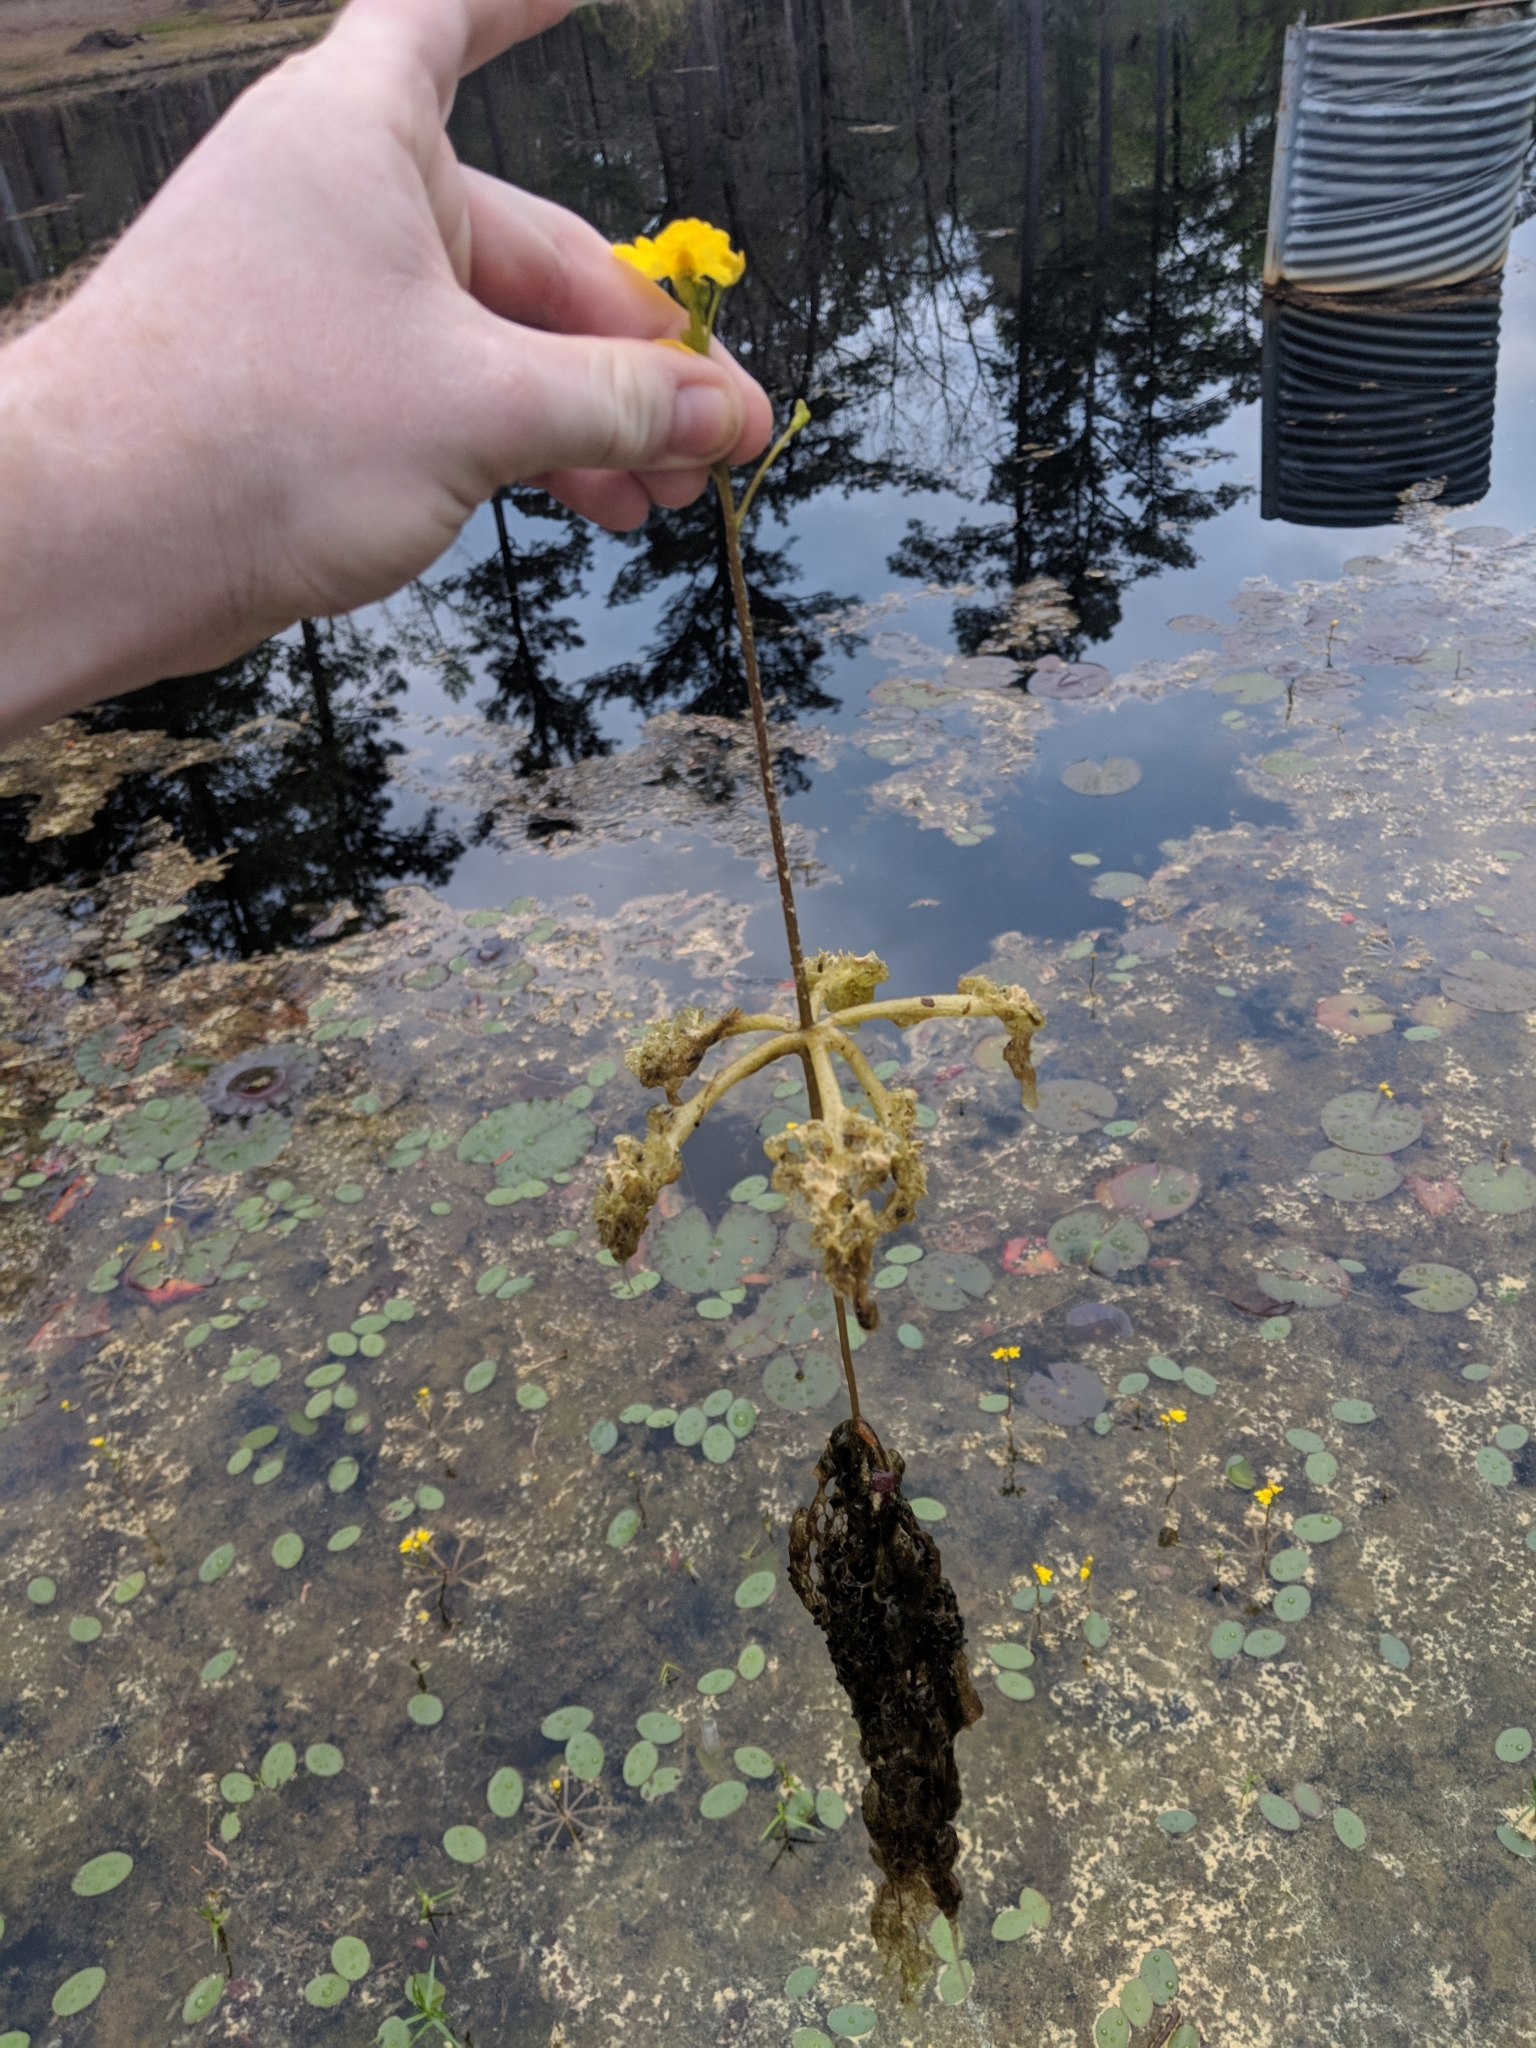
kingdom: Plantae
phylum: Tracheophyta
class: Magnoliopsida
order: Lamiales
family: Lentibulariaceae
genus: Utricularia
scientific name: Utricularia inflata
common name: Floating bladderwort
